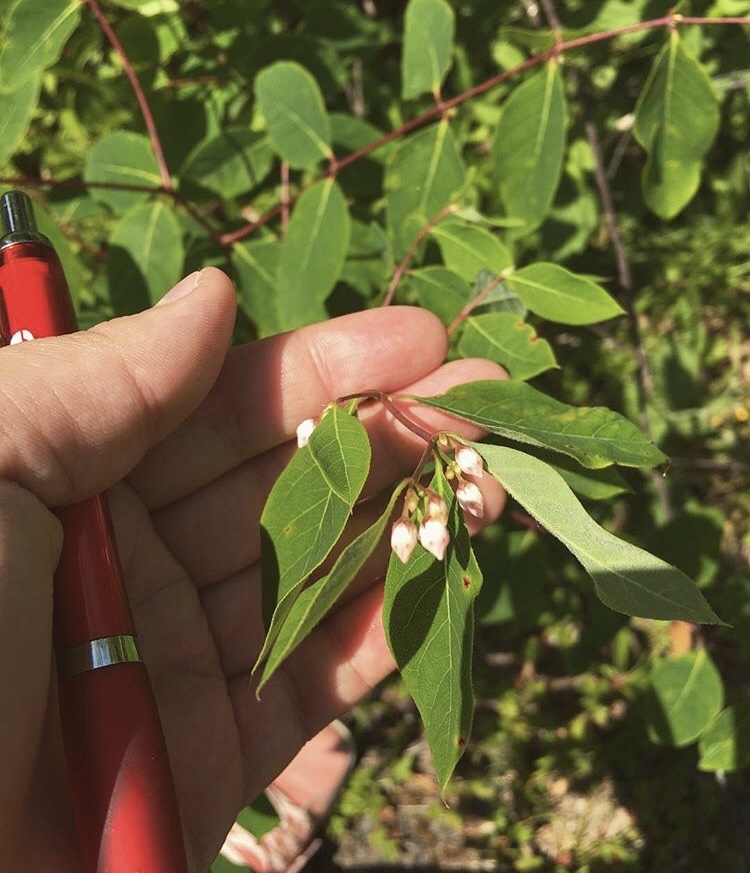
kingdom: Plantae
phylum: Tracheophyta
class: Magnoliopsida
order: Gentianales
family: Apocynaceae
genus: Apocynum
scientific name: Apocynum androsaemifolium
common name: Spreading dogbane
